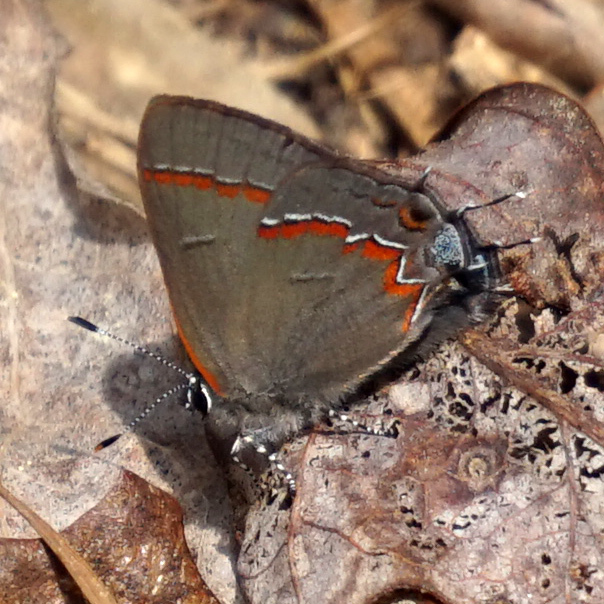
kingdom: Animalia
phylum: Arthropoda
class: Insecta
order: Lepidoptera
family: Lycaenidae
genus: Calycopis
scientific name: Calycopis cecrops
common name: Red-banded hairstreak
